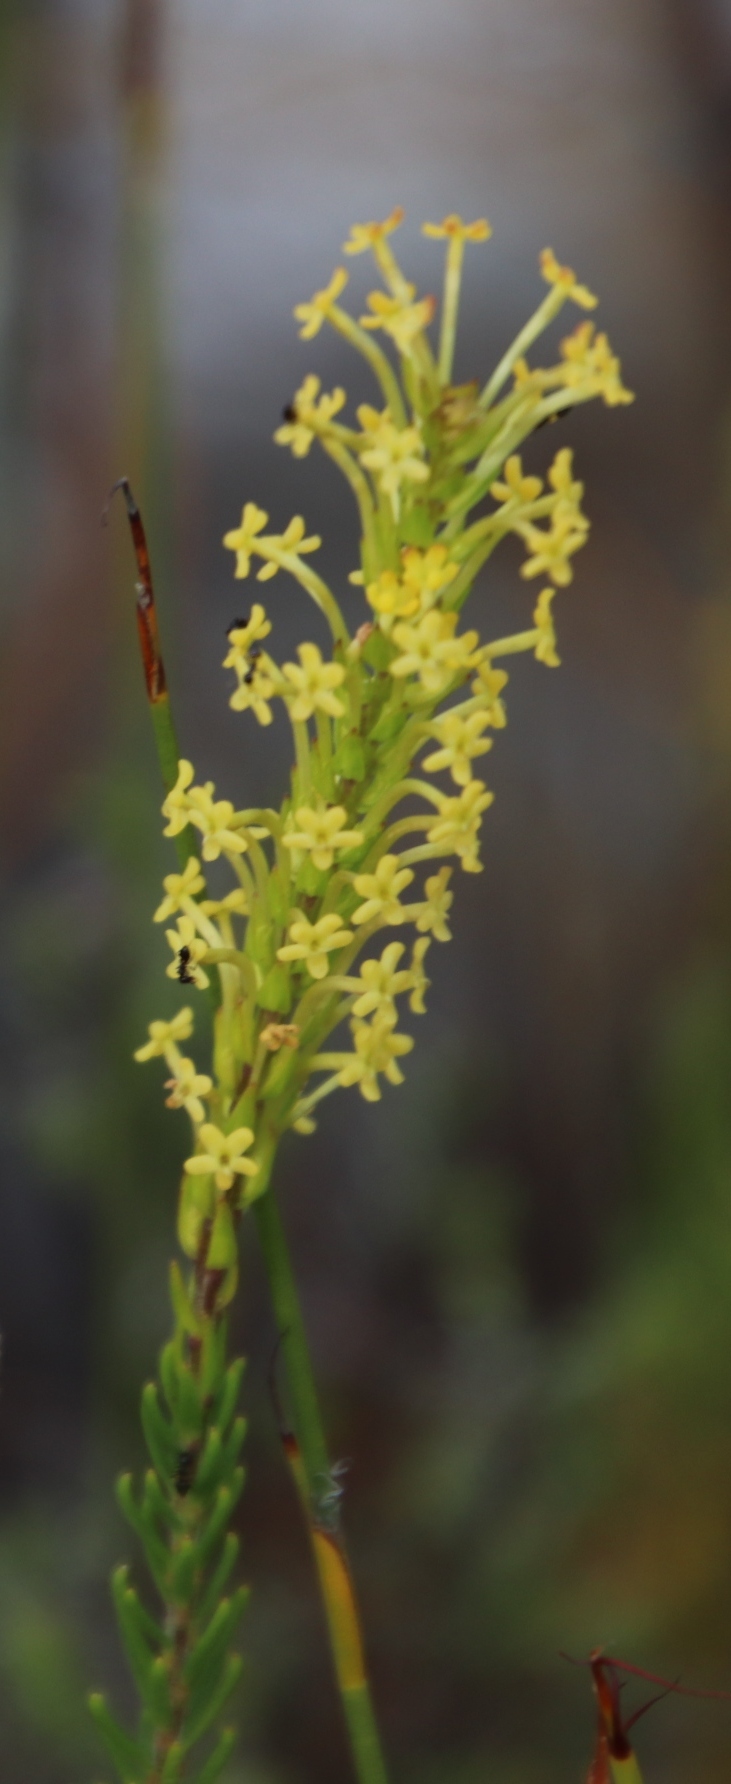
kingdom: Plantae
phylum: Tracheophyta
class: Magnoliopsida
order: Lamiales
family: Scrophulariaceae
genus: Microdon
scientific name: Microdon dubius
